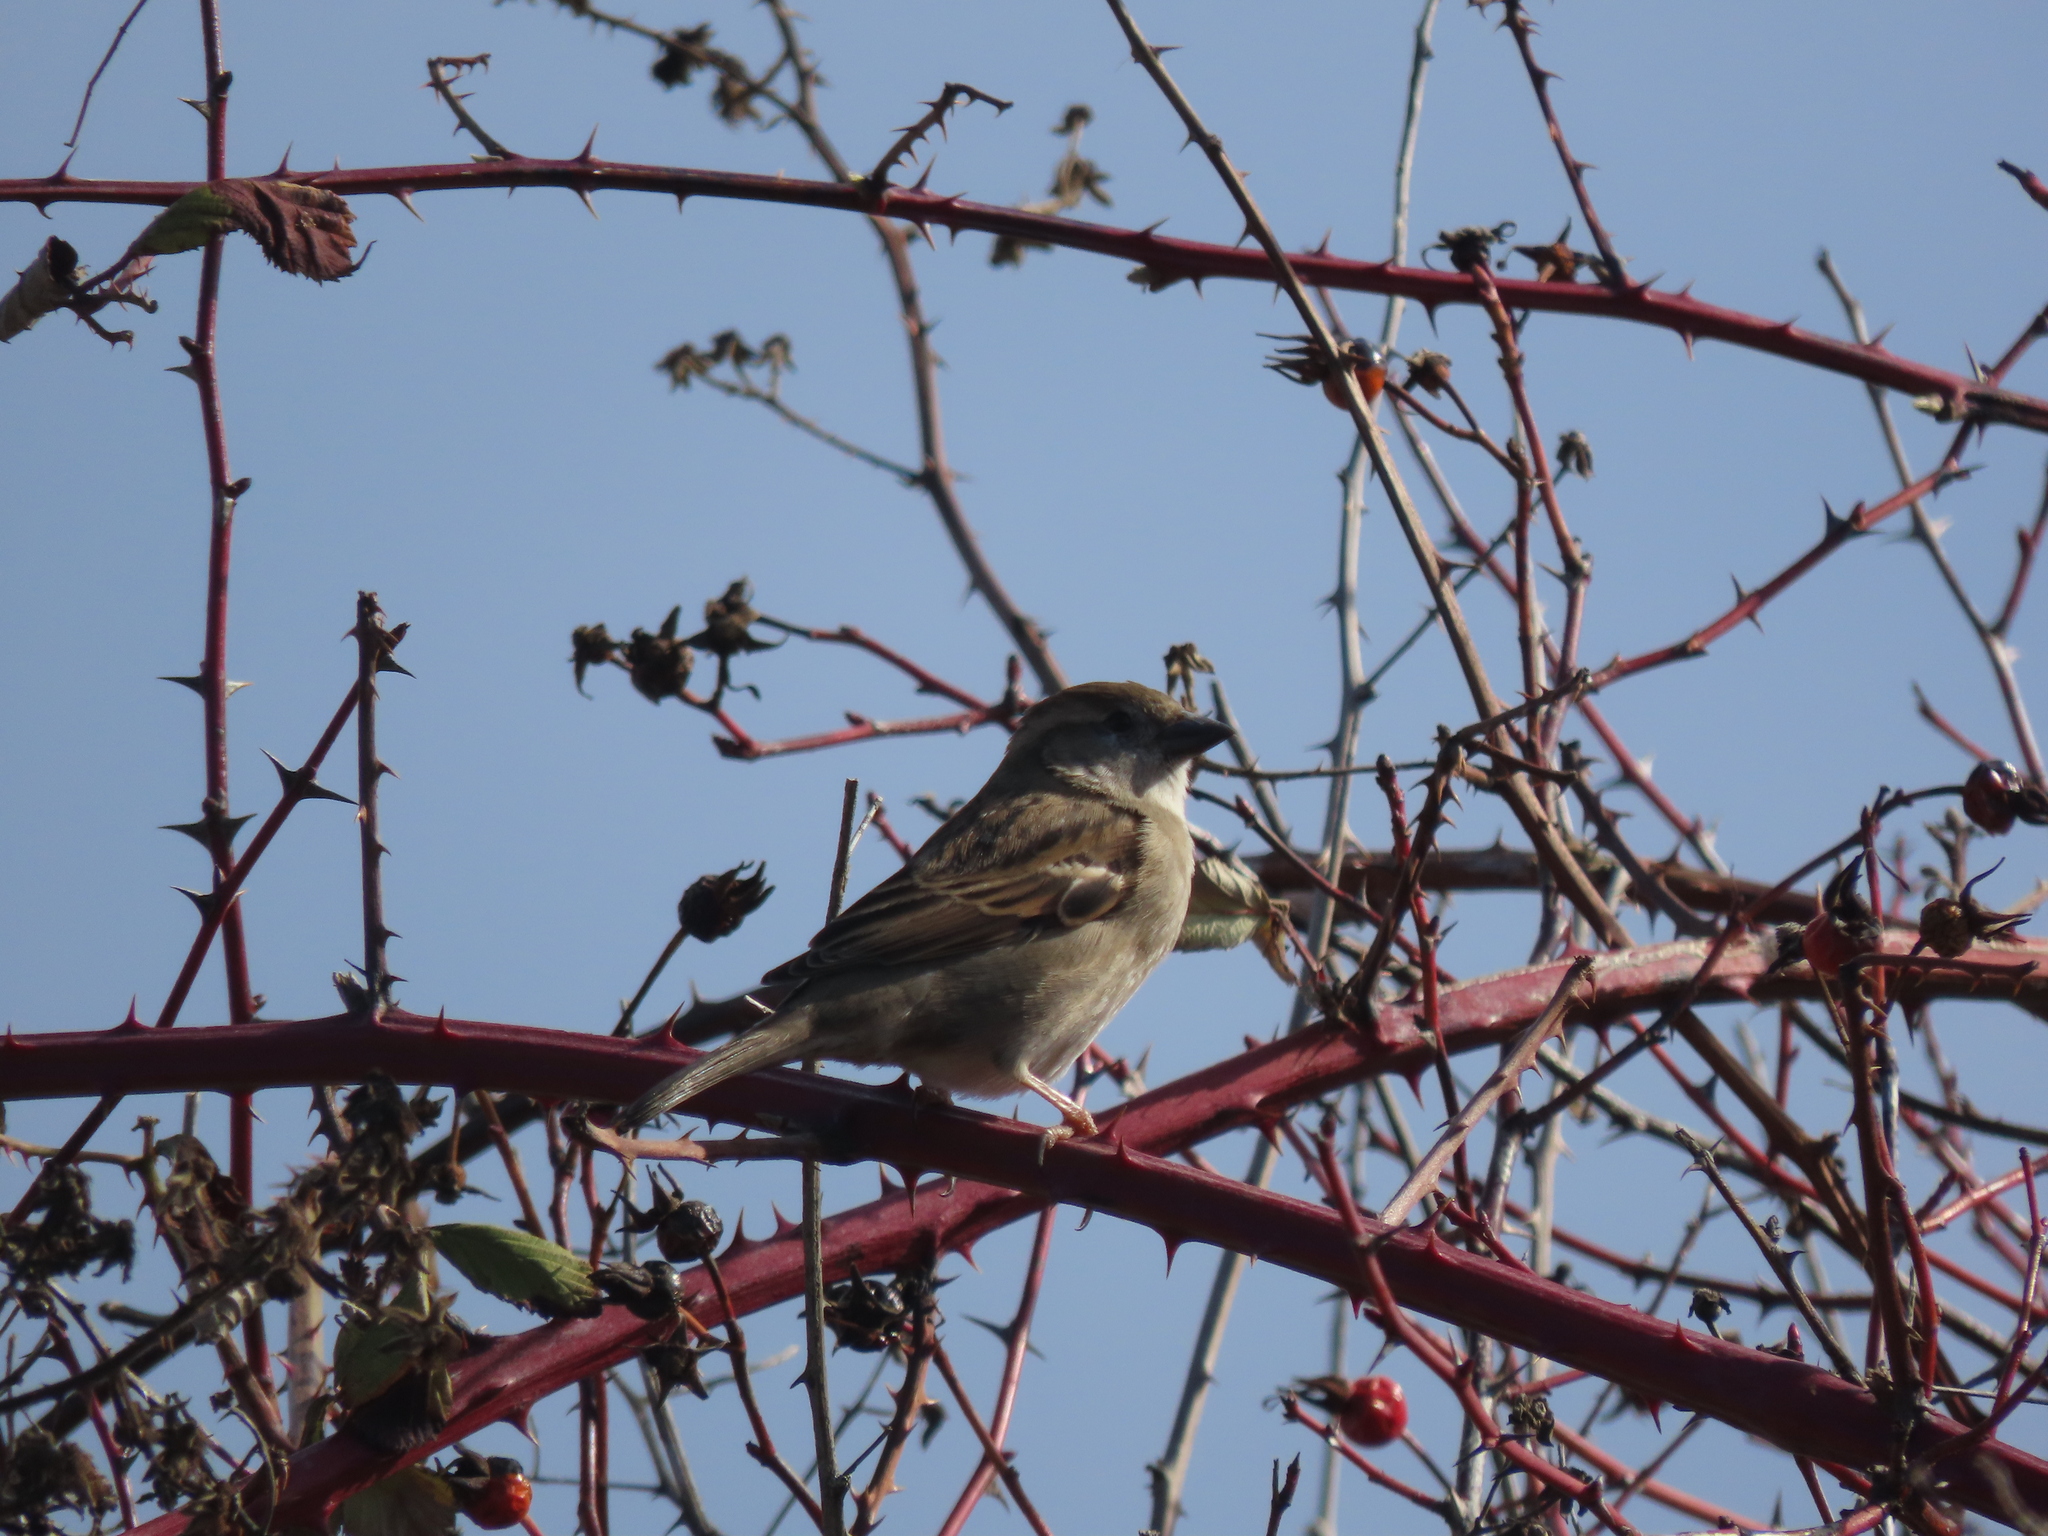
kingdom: Animalia
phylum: Chordata
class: Aves
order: Passeriformes
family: Passeridae
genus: Passer
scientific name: Passer domesticus
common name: House sparrow
